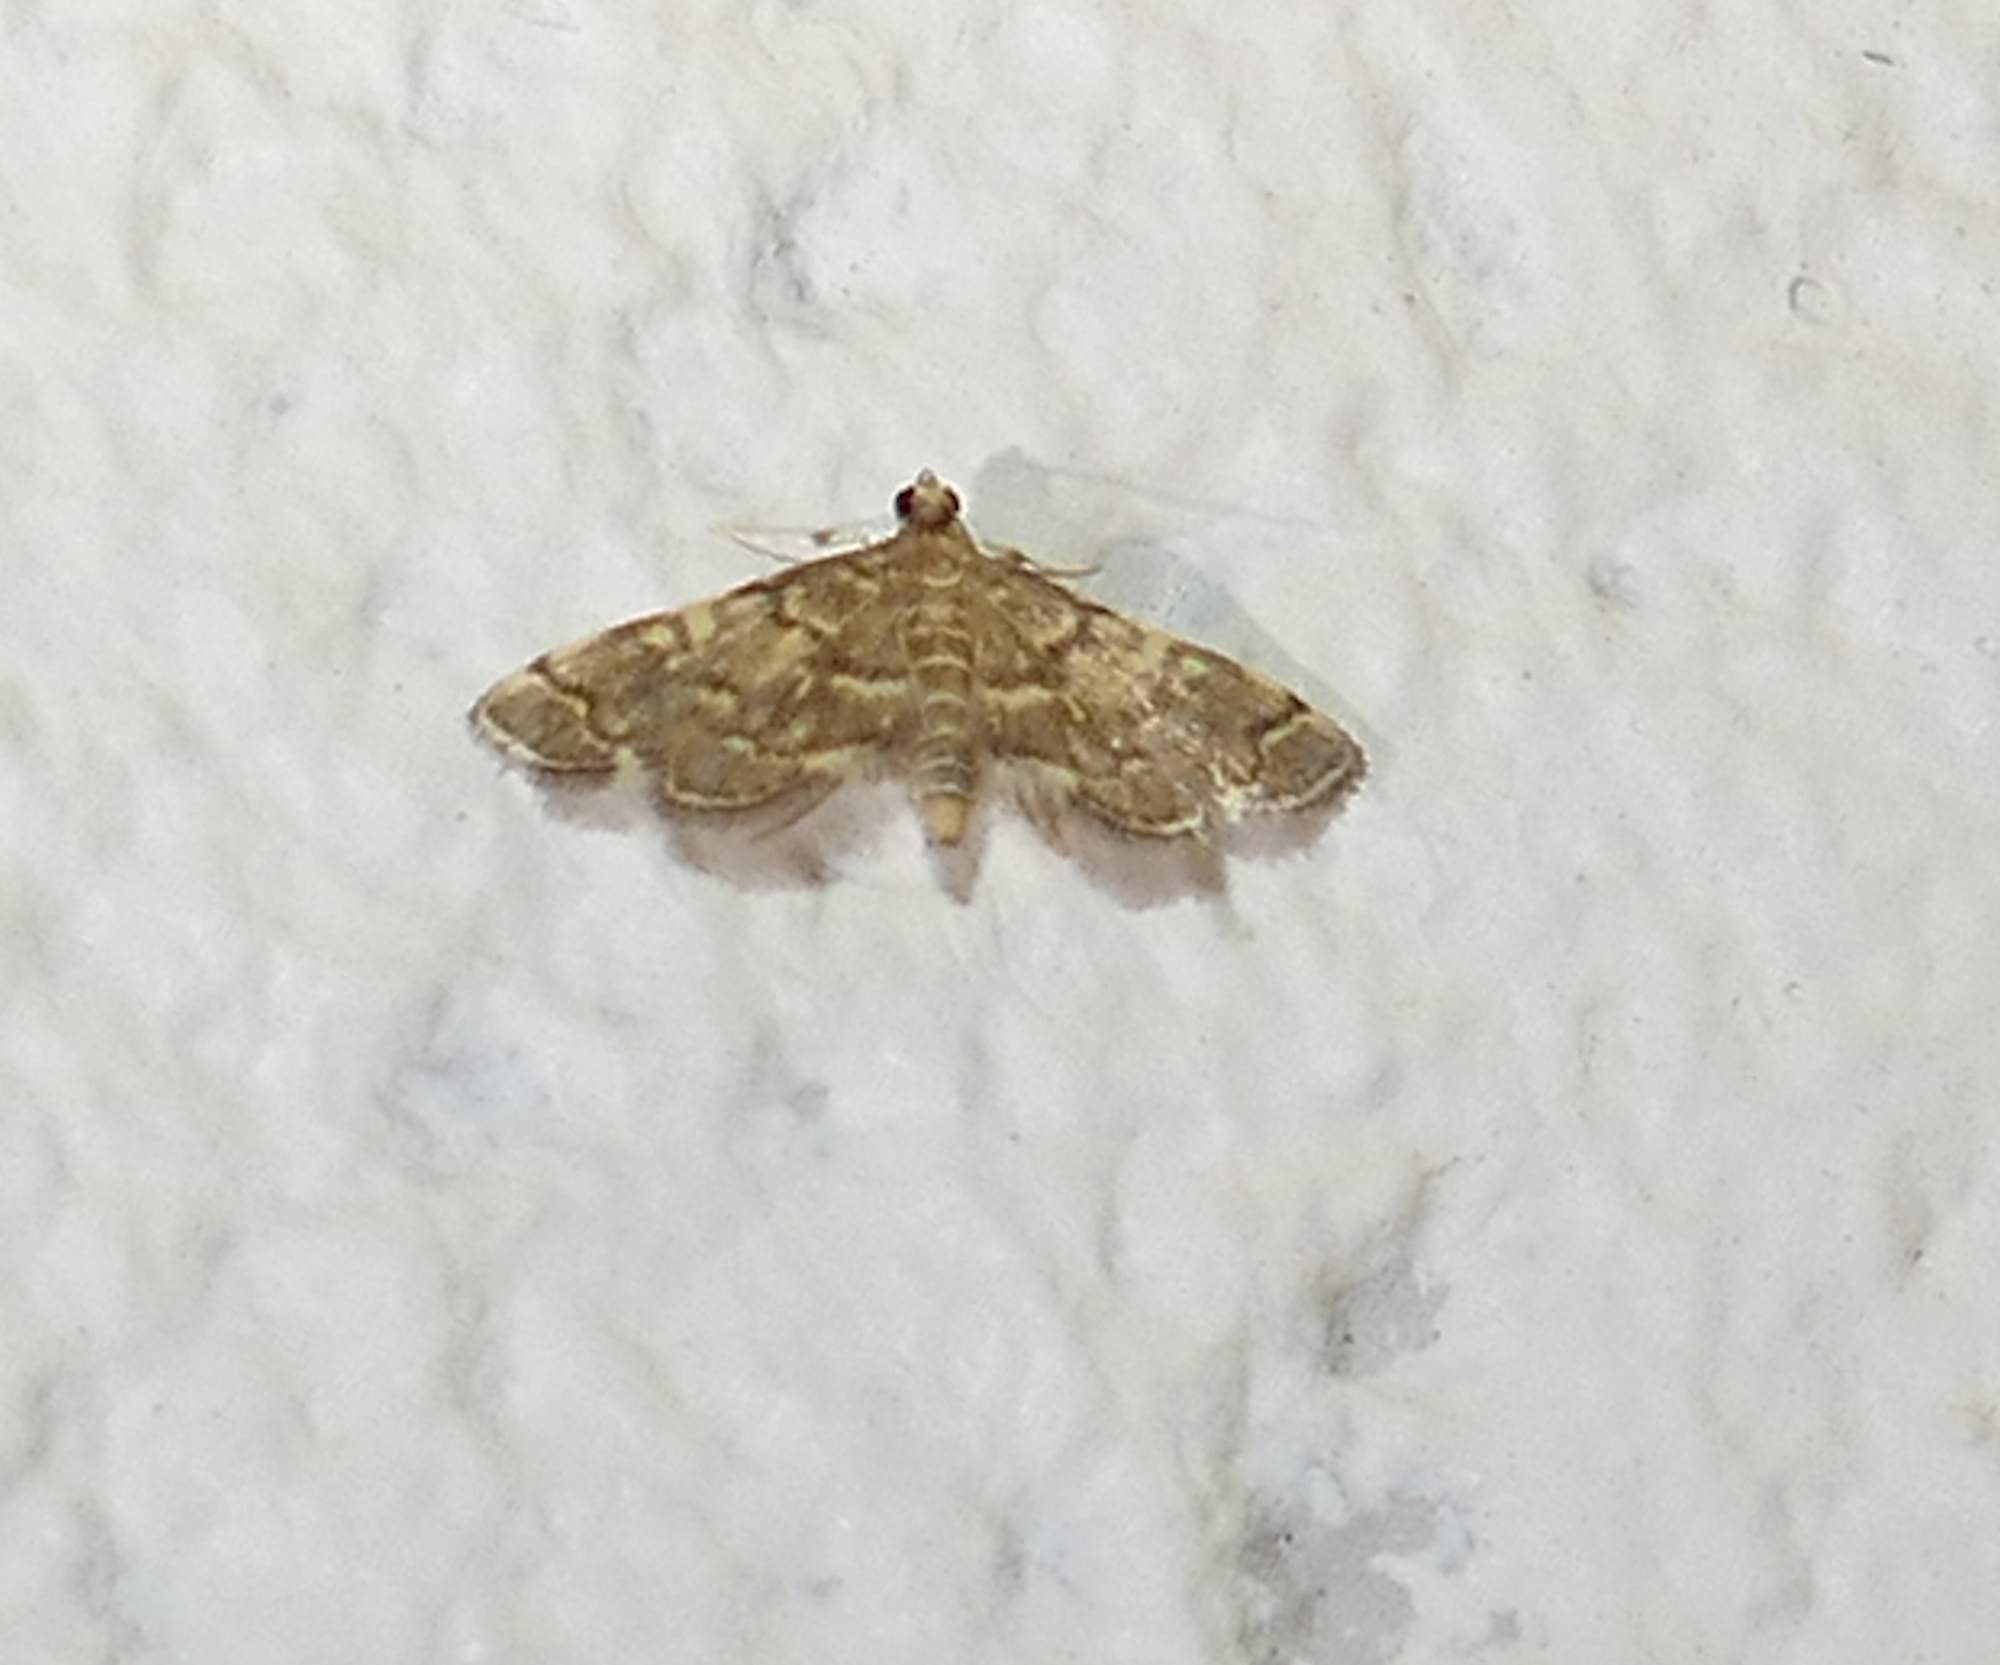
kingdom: Animalia
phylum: Arthropoda
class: Insecta
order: Lepidoptera
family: Crambidae
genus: Anageshna
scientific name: Anageshna primordialis
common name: Yellow-spotted webworm moth
